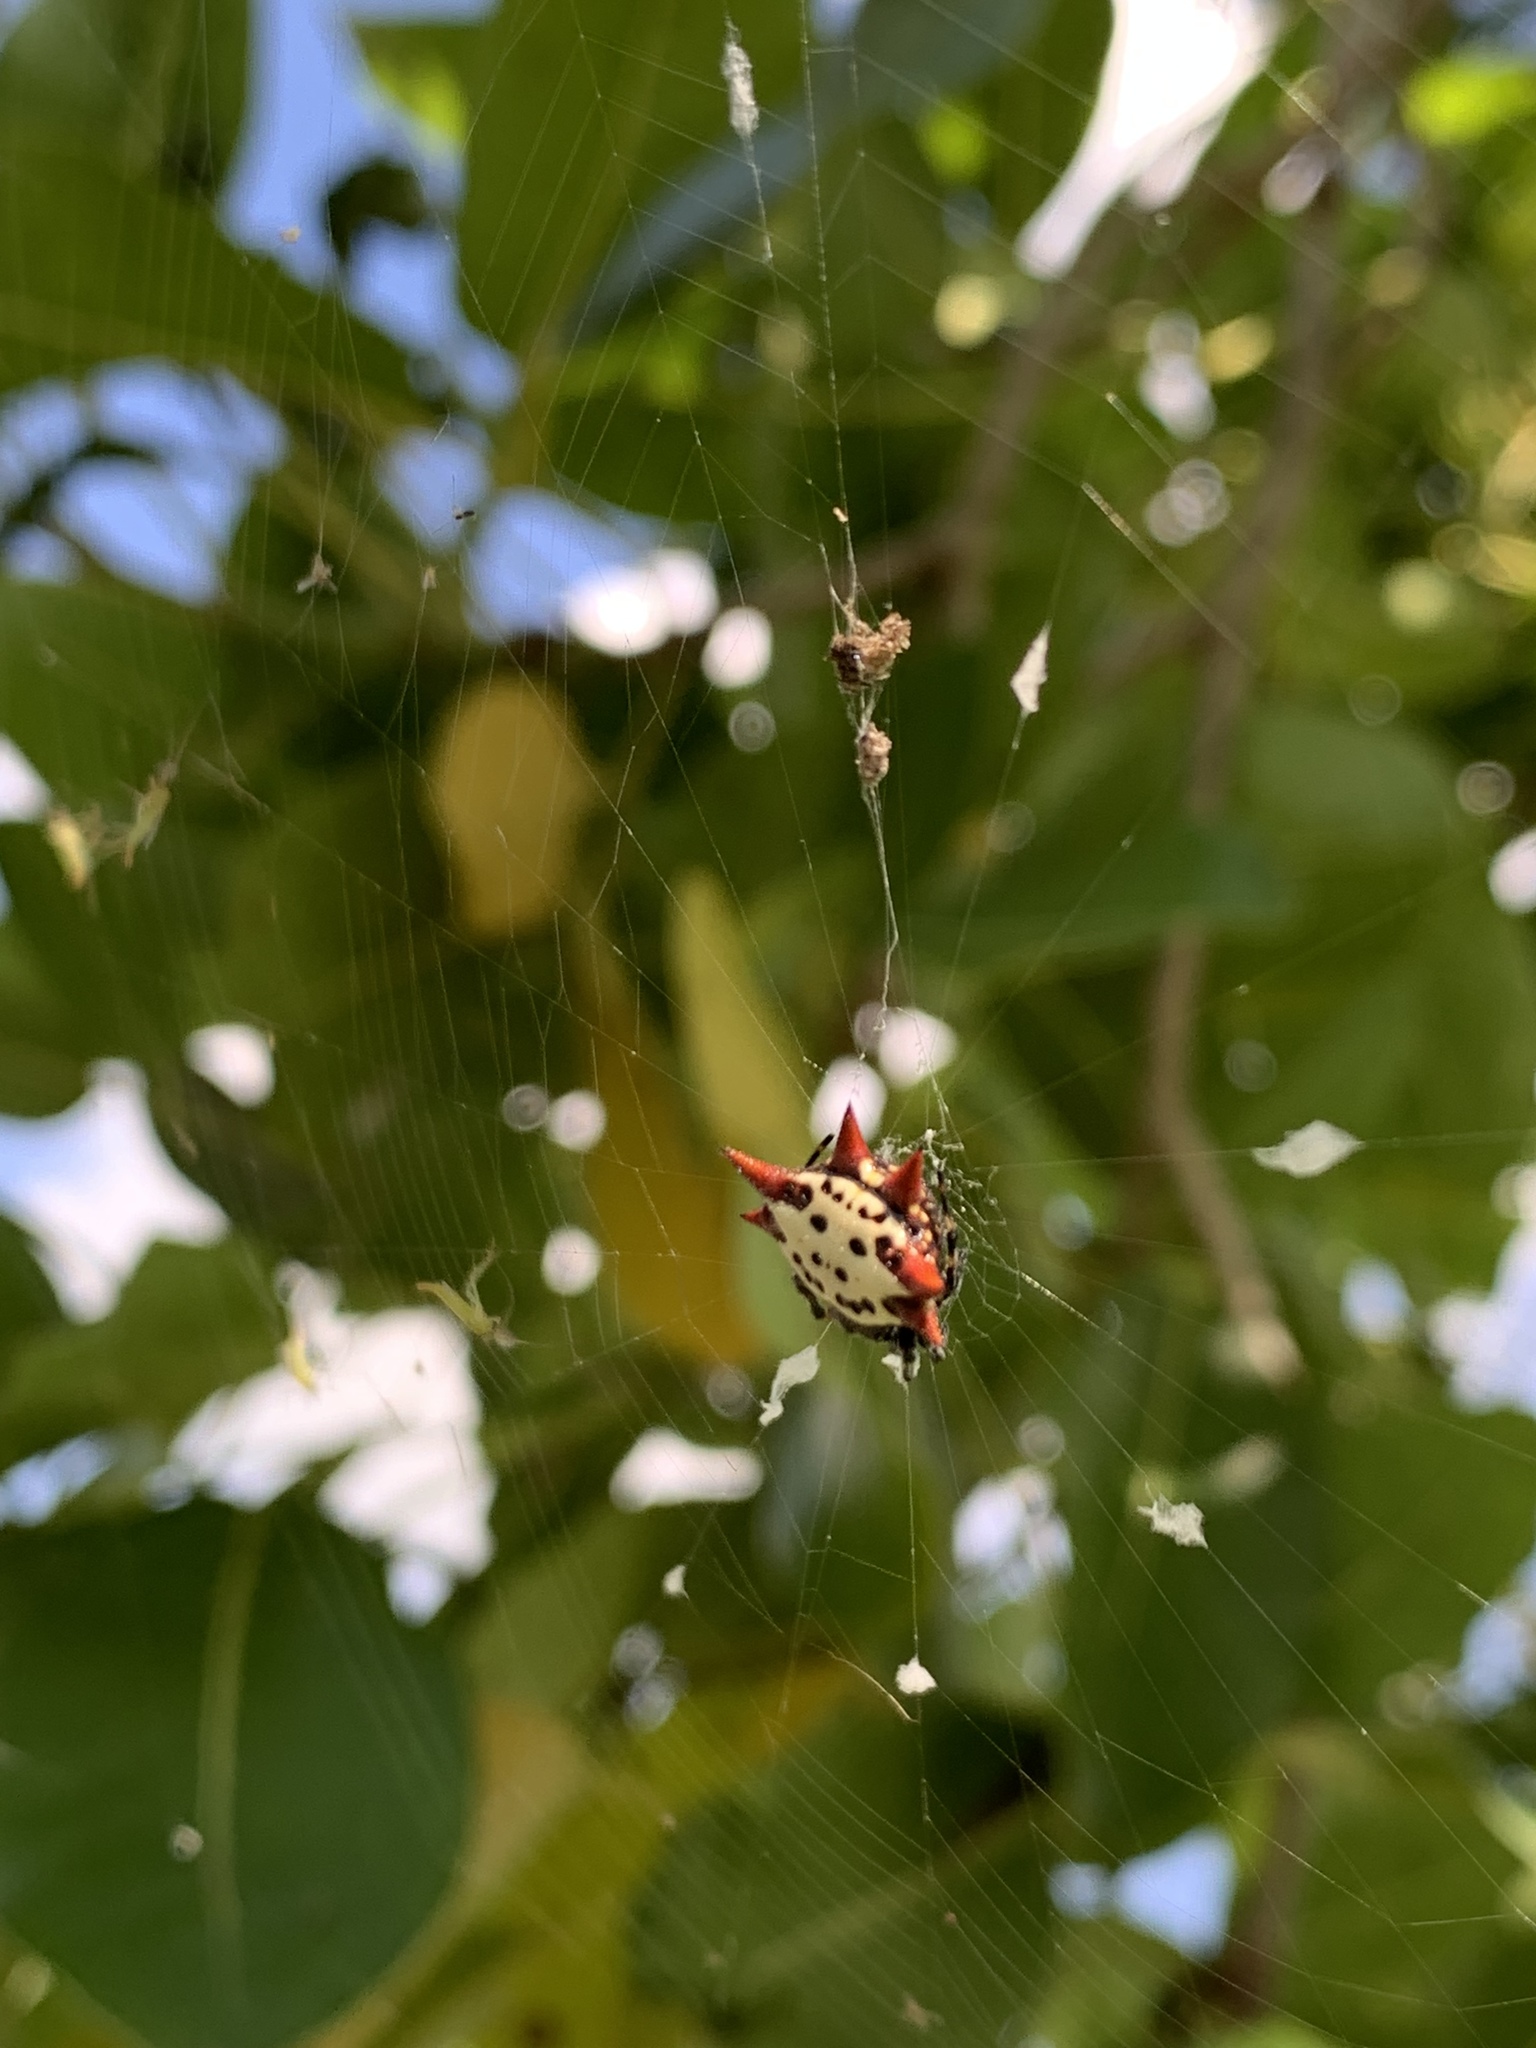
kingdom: Animalia
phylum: Arthropoda
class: Arachnida
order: Araneae
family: Araneidae
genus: Gasteracantha
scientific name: Gasteracantha cancriformis
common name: Orb weavers
